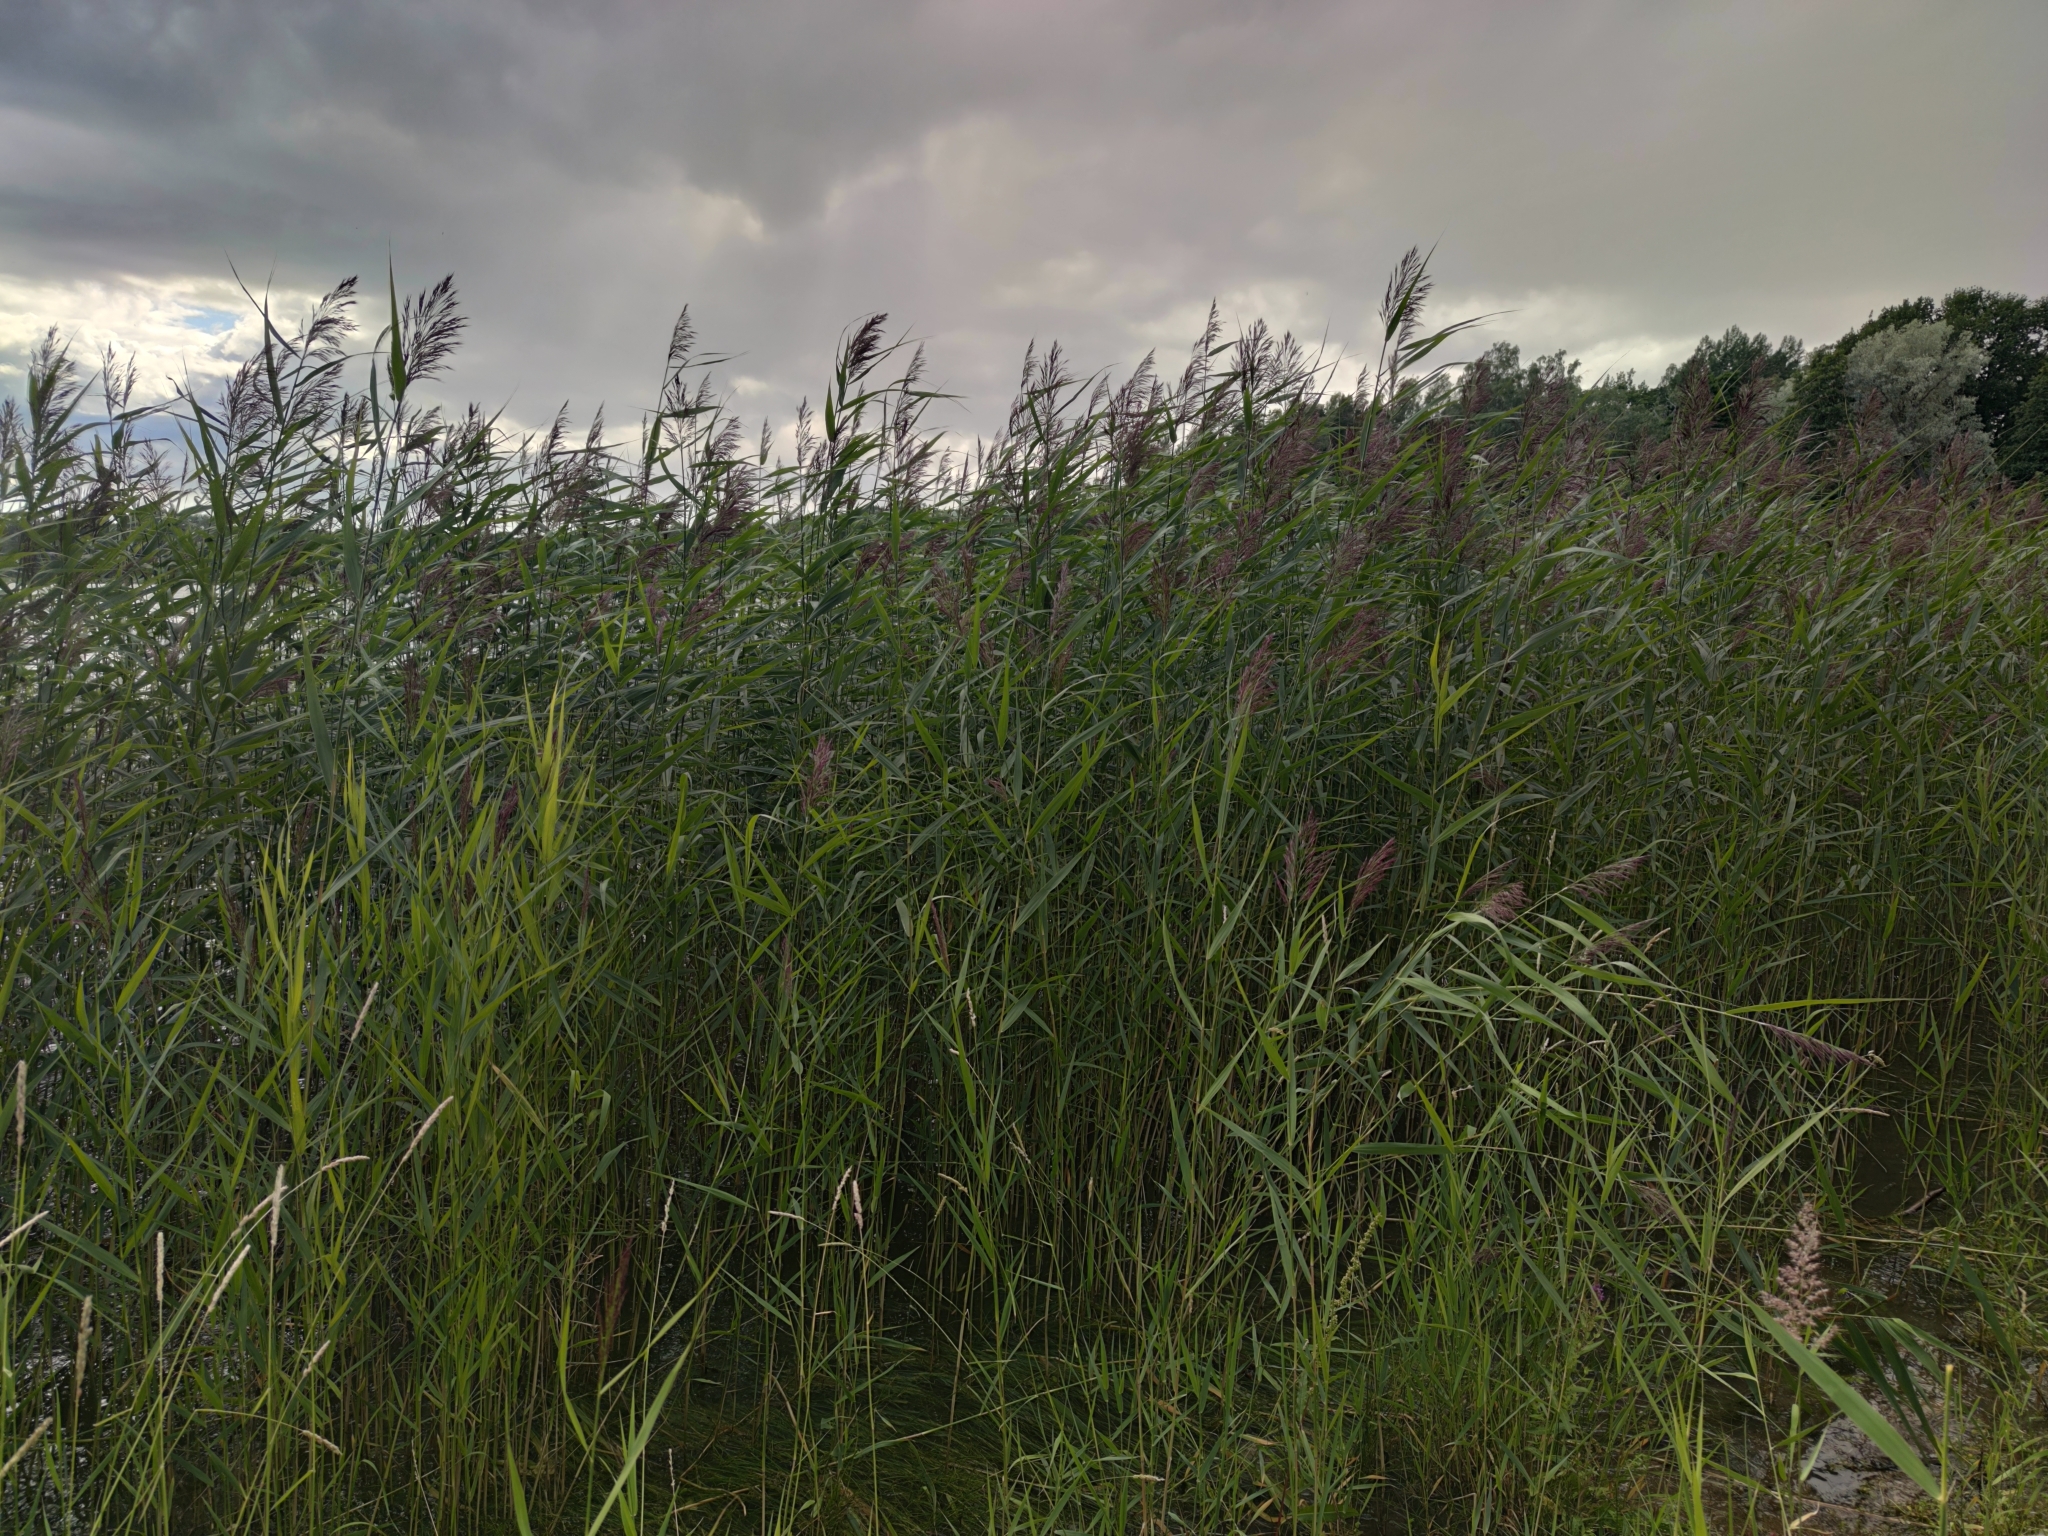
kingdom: Plantae
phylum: Tracheophyta
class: Liliopsida
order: Poales
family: Poaceae
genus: Phragmites
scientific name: Phragmites australis
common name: Common reed
